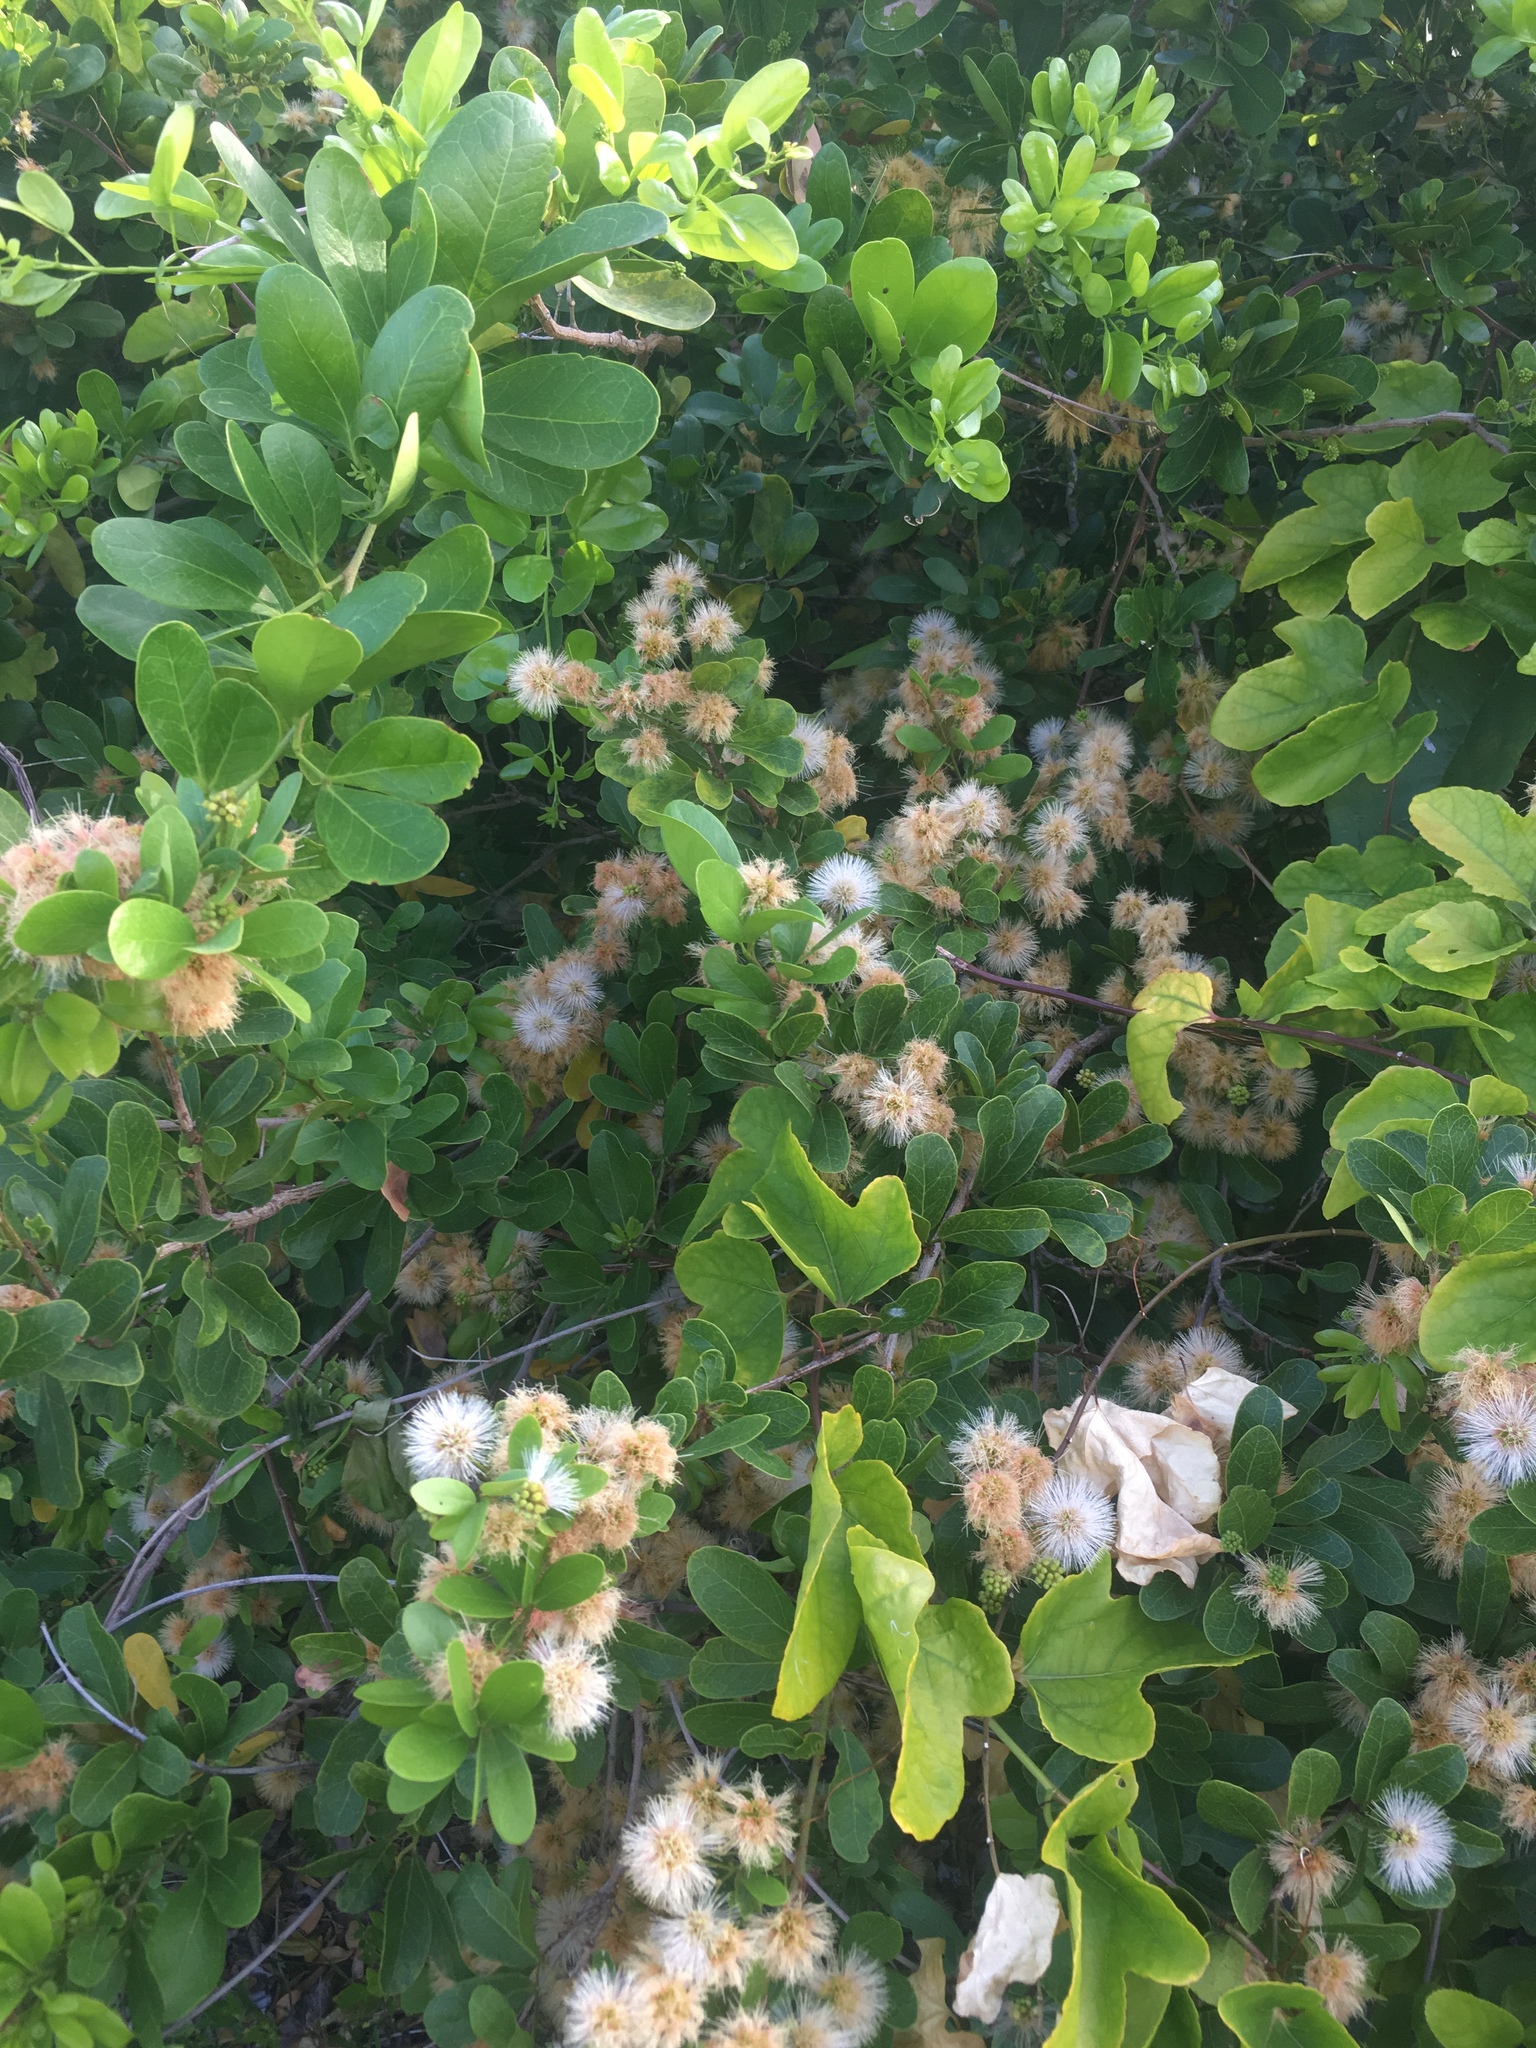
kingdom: Plantae
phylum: Tracheophyta
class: Magnoliopsida
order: Fabales
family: Fabaceae
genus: Pithecellobium
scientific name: Pithecellobium keyense
